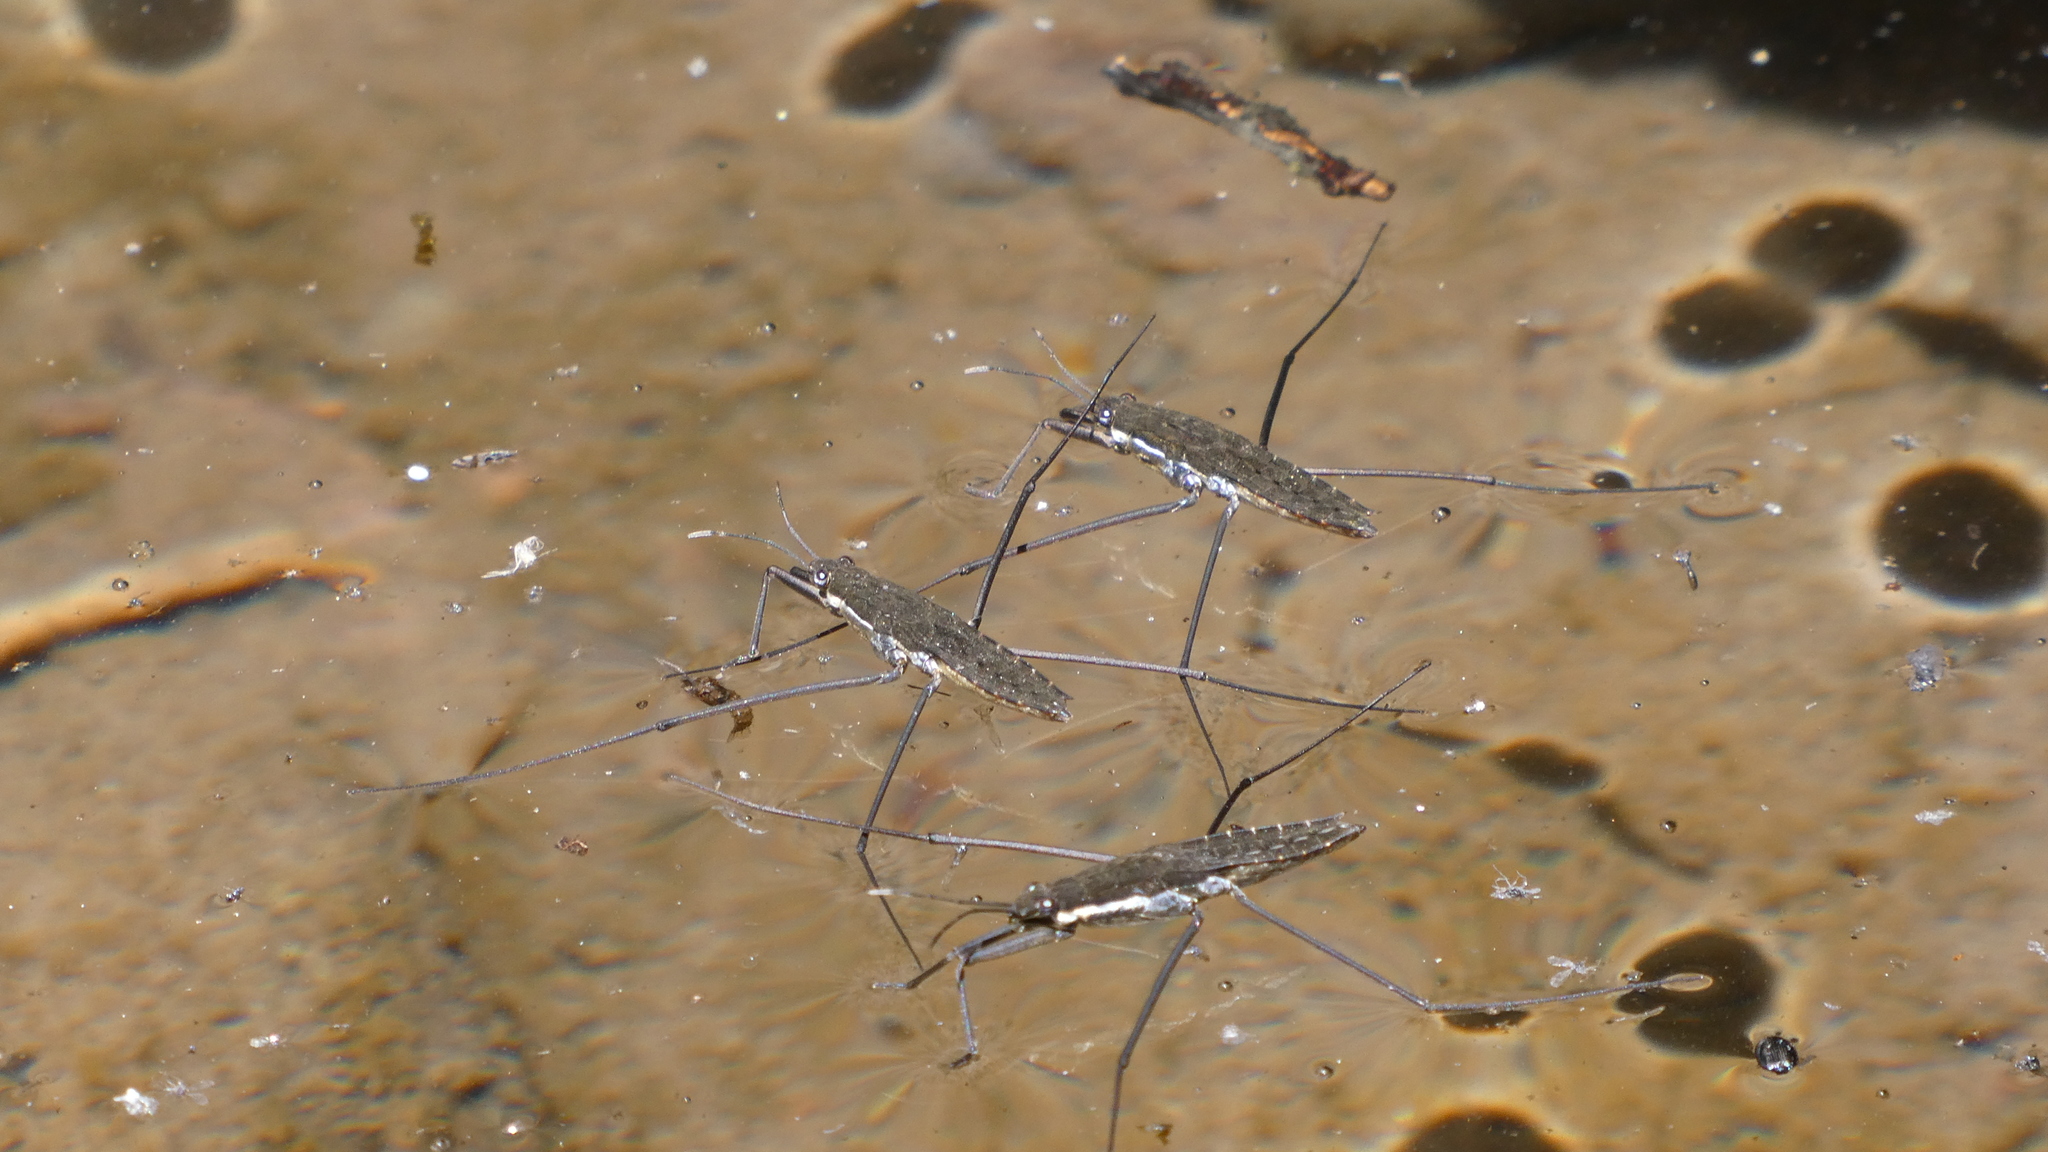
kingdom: Animalia
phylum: Arthropoda
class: Insecta
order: Hemiptera
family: Gerridae
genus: Aquarius
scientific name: Aquarius remigis
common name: Common water strider
